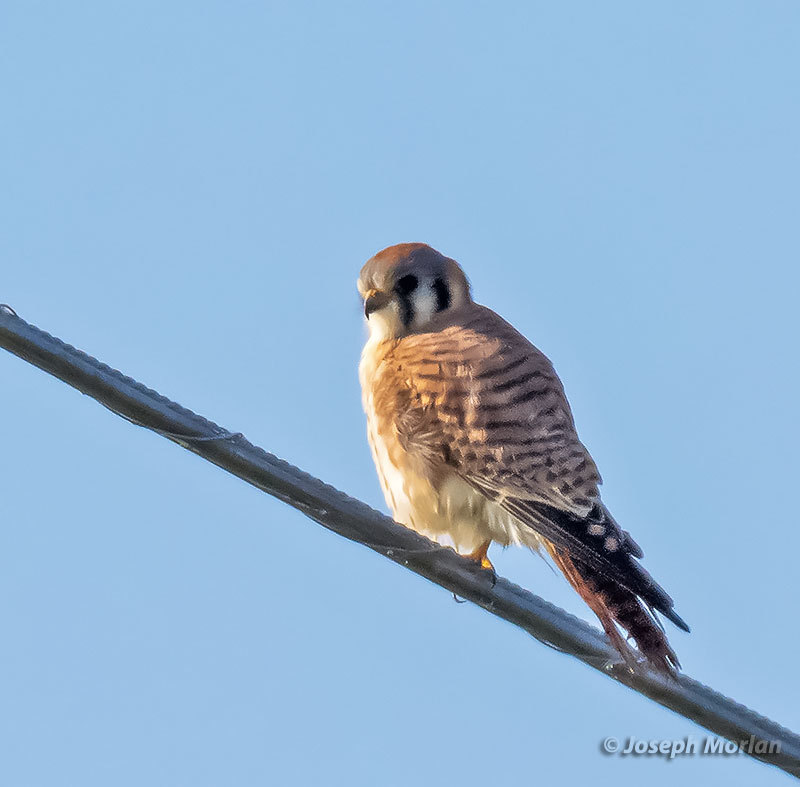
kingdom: Animalia
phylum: Chordata
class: Aves
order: Falconiformes
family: Falconidae
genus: Falco
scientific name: Falco sparverius
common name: American kestrel
